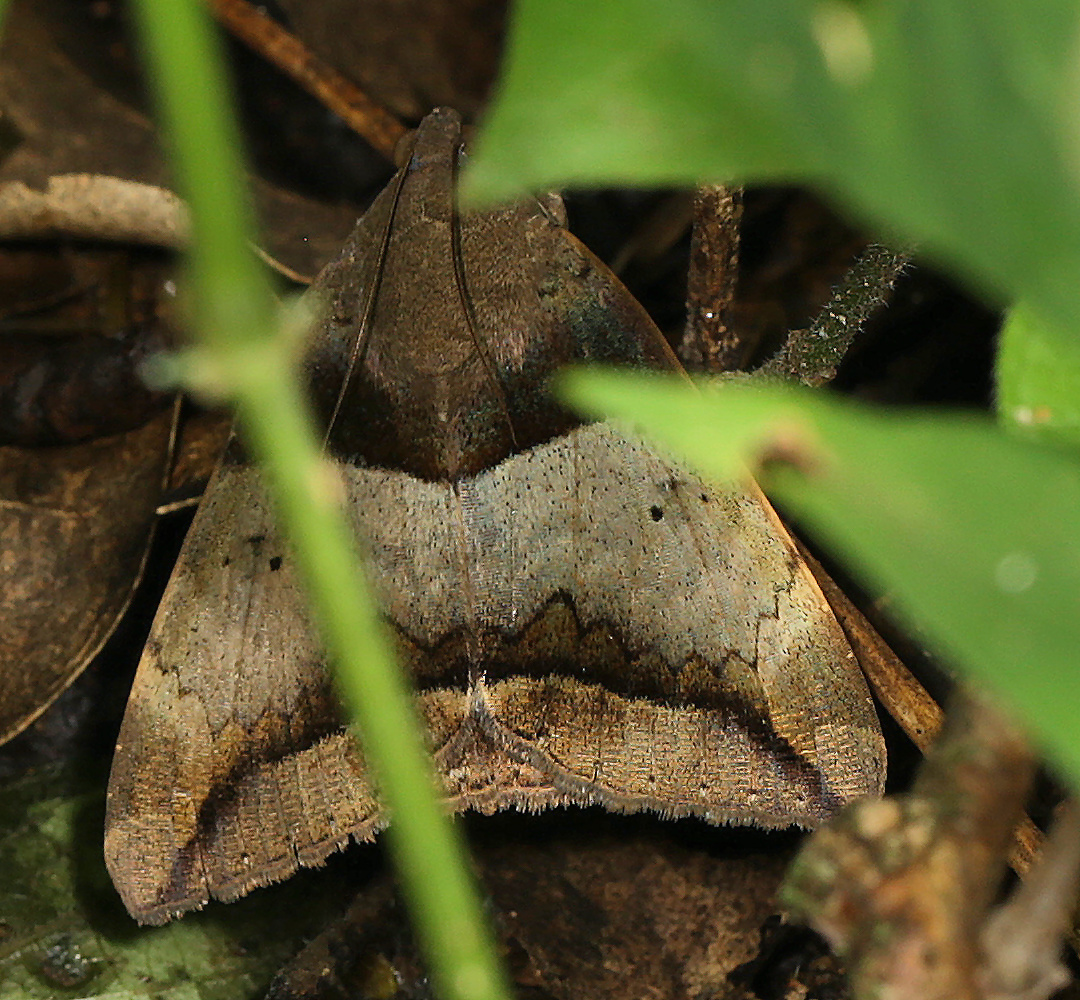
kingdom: Animalia
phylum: Arthropoda
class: Insecta
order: Lepidoptera
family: Erebidae
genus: Achaea
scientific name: Achaea lienardi
